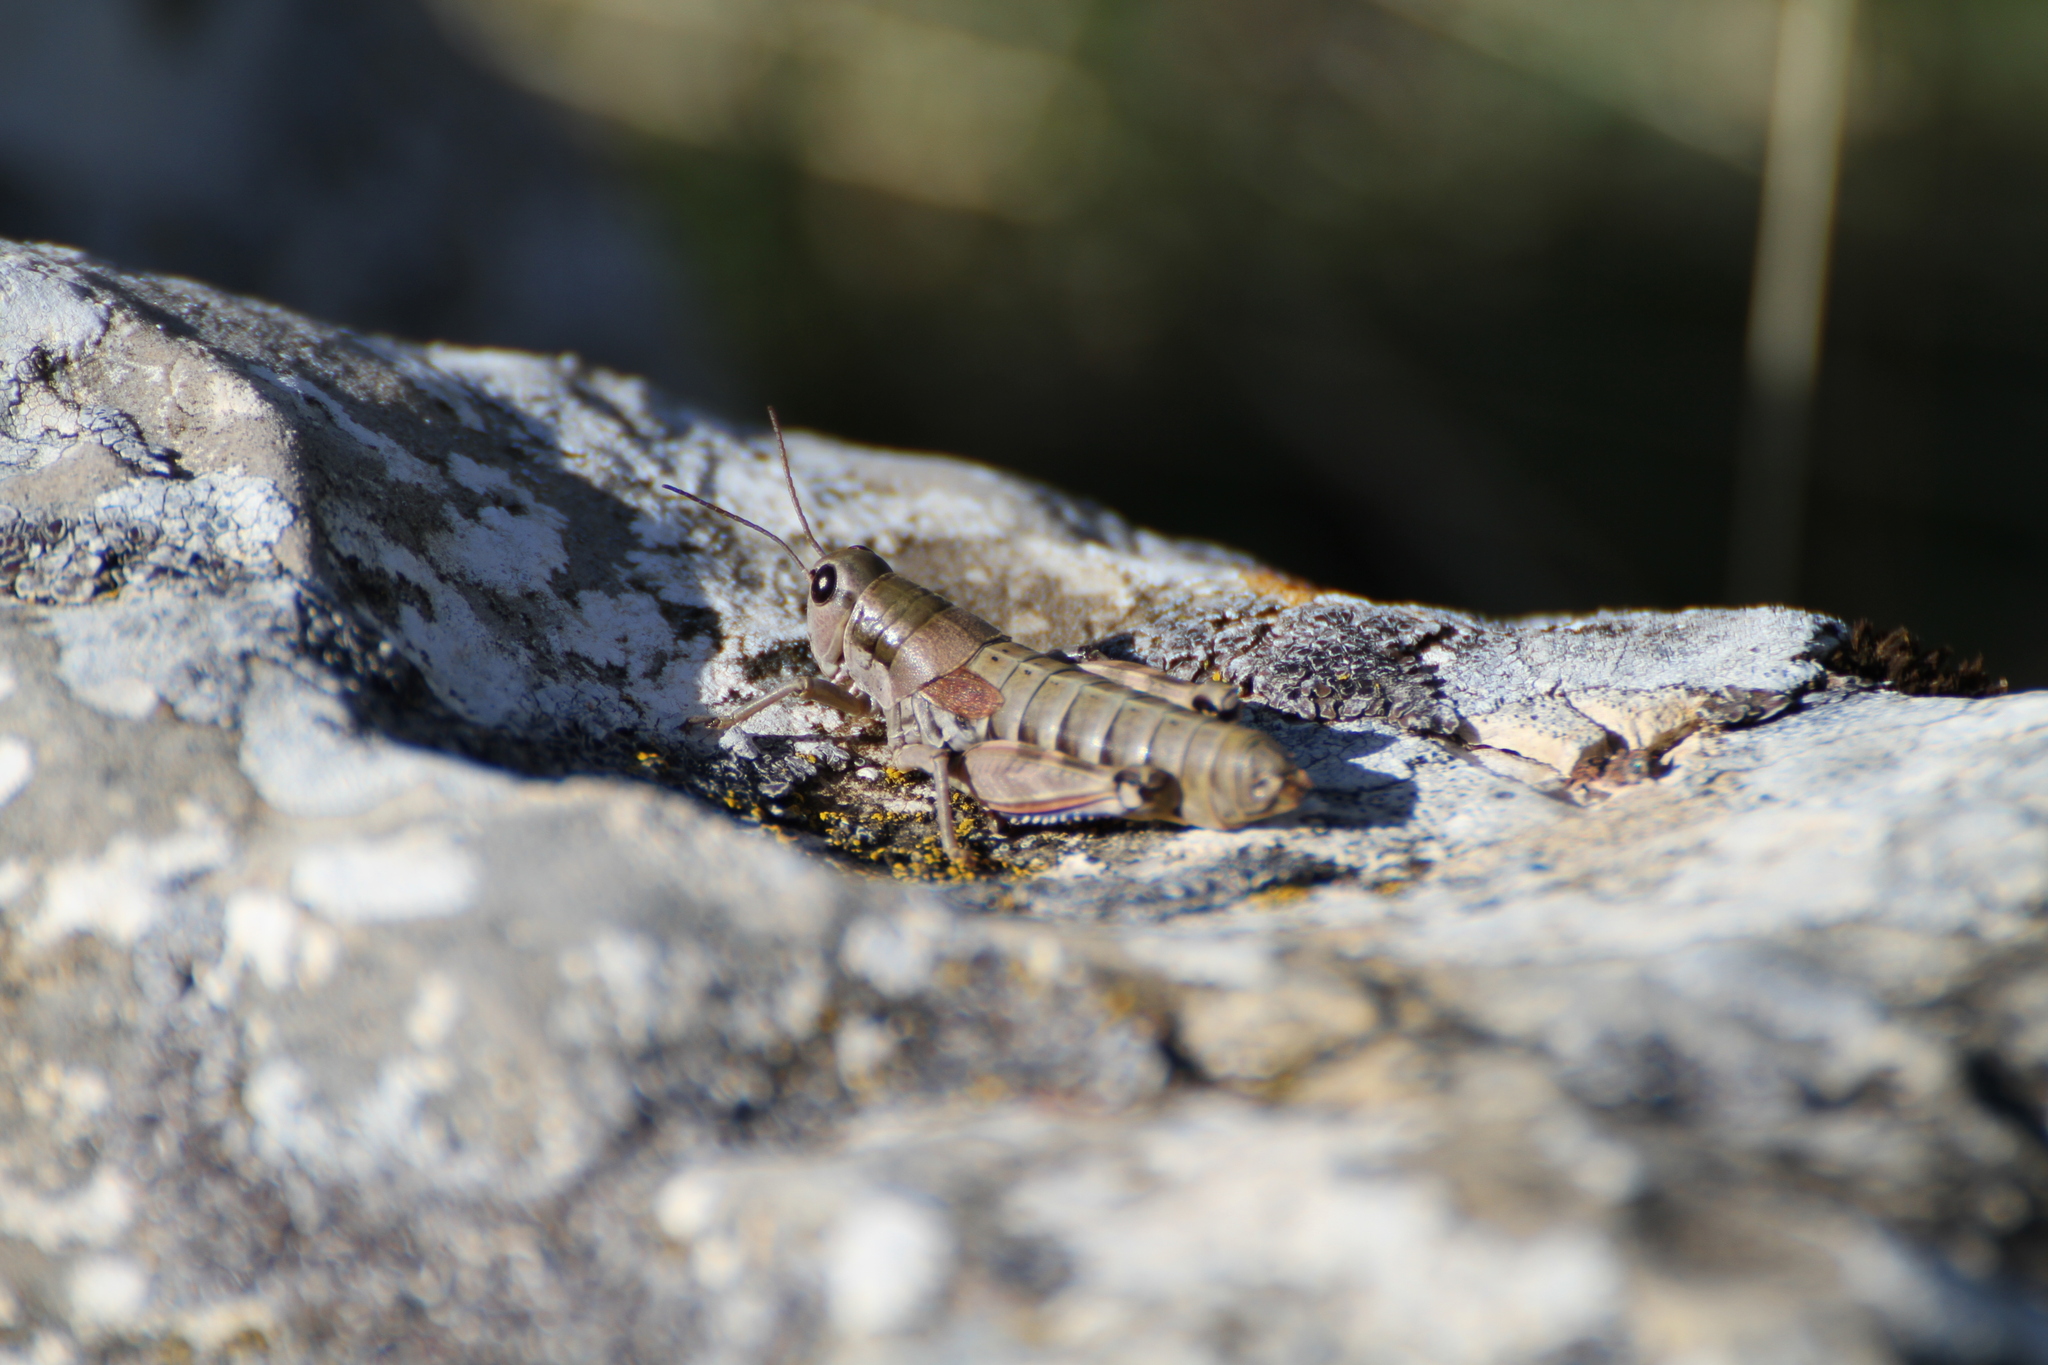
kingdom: Animalia
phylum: Arthropoda
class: Insecta
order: Orthoptera
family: Acrididae
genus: Podisma
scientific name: Podisma amedegnatoae
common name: Ventoux mountain grasshopper
